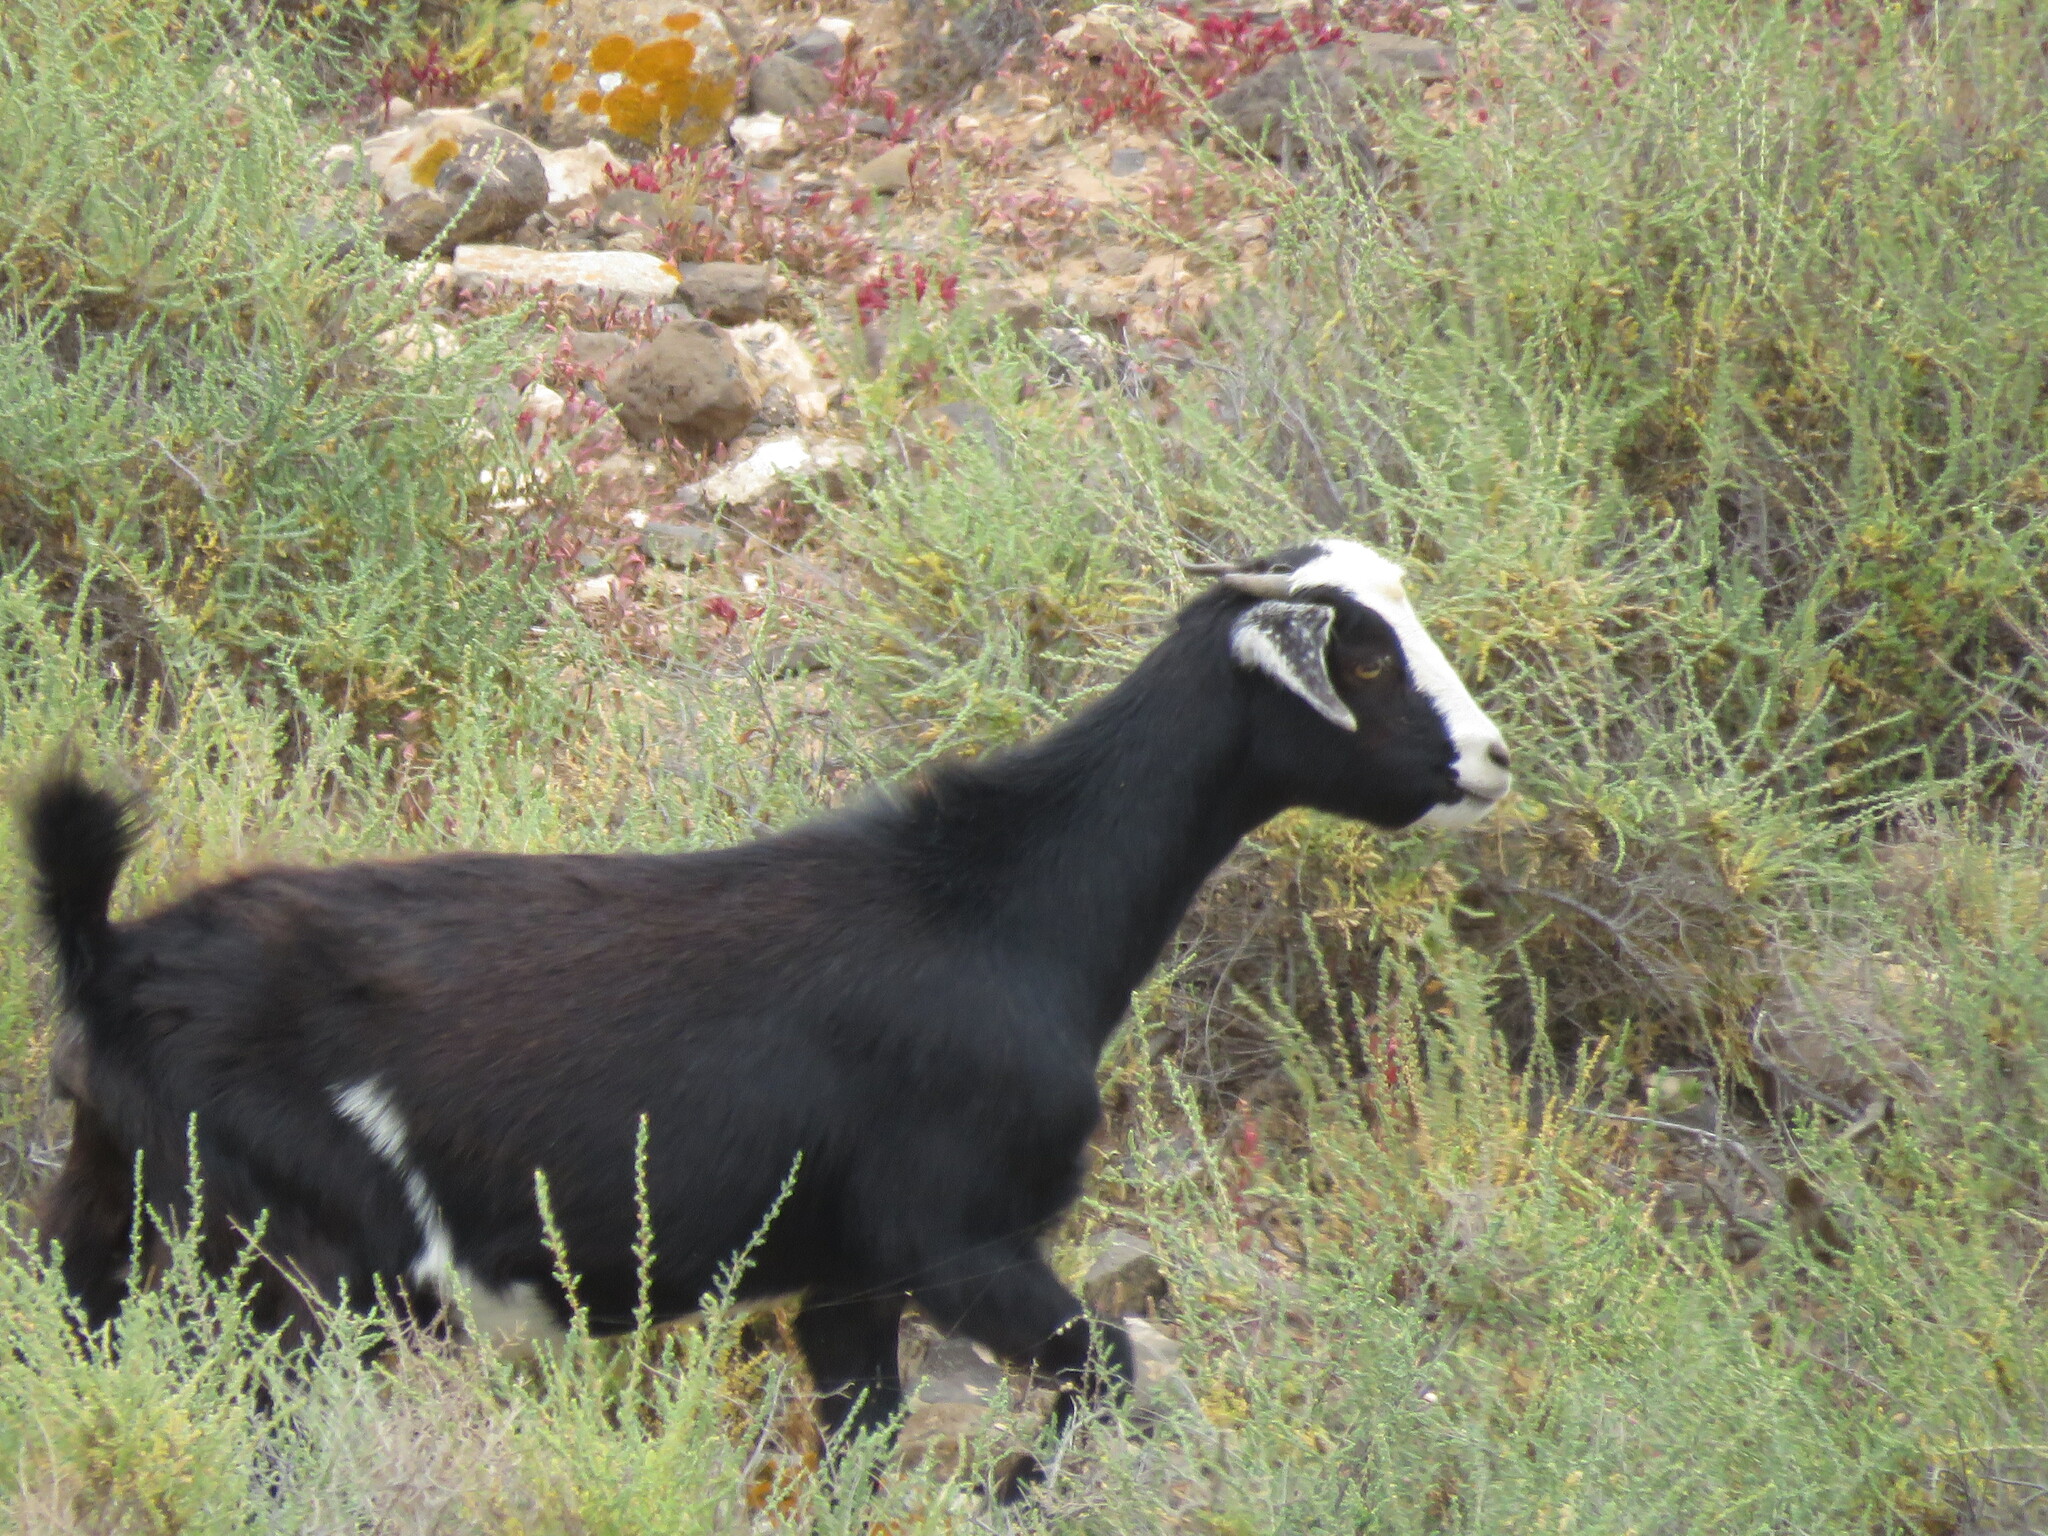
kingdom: Animalia
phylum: Chordata
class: Mammalia
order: Artiodactyla
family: Bovidae
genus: Capra
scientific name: Capra hircus
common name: Domestic goat
